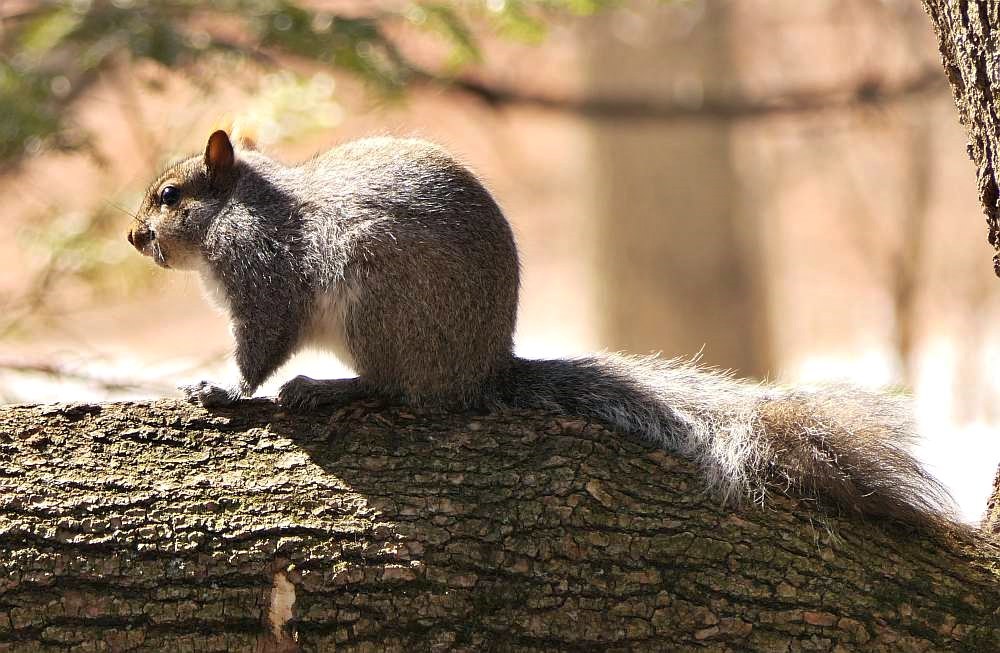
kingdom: Animalia
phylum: Chordata
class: Mammalia
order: Rodentia
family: Sciuridae
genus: Sciurus
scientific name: Sciurus carolinensis
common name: Eastern gray squirrel
